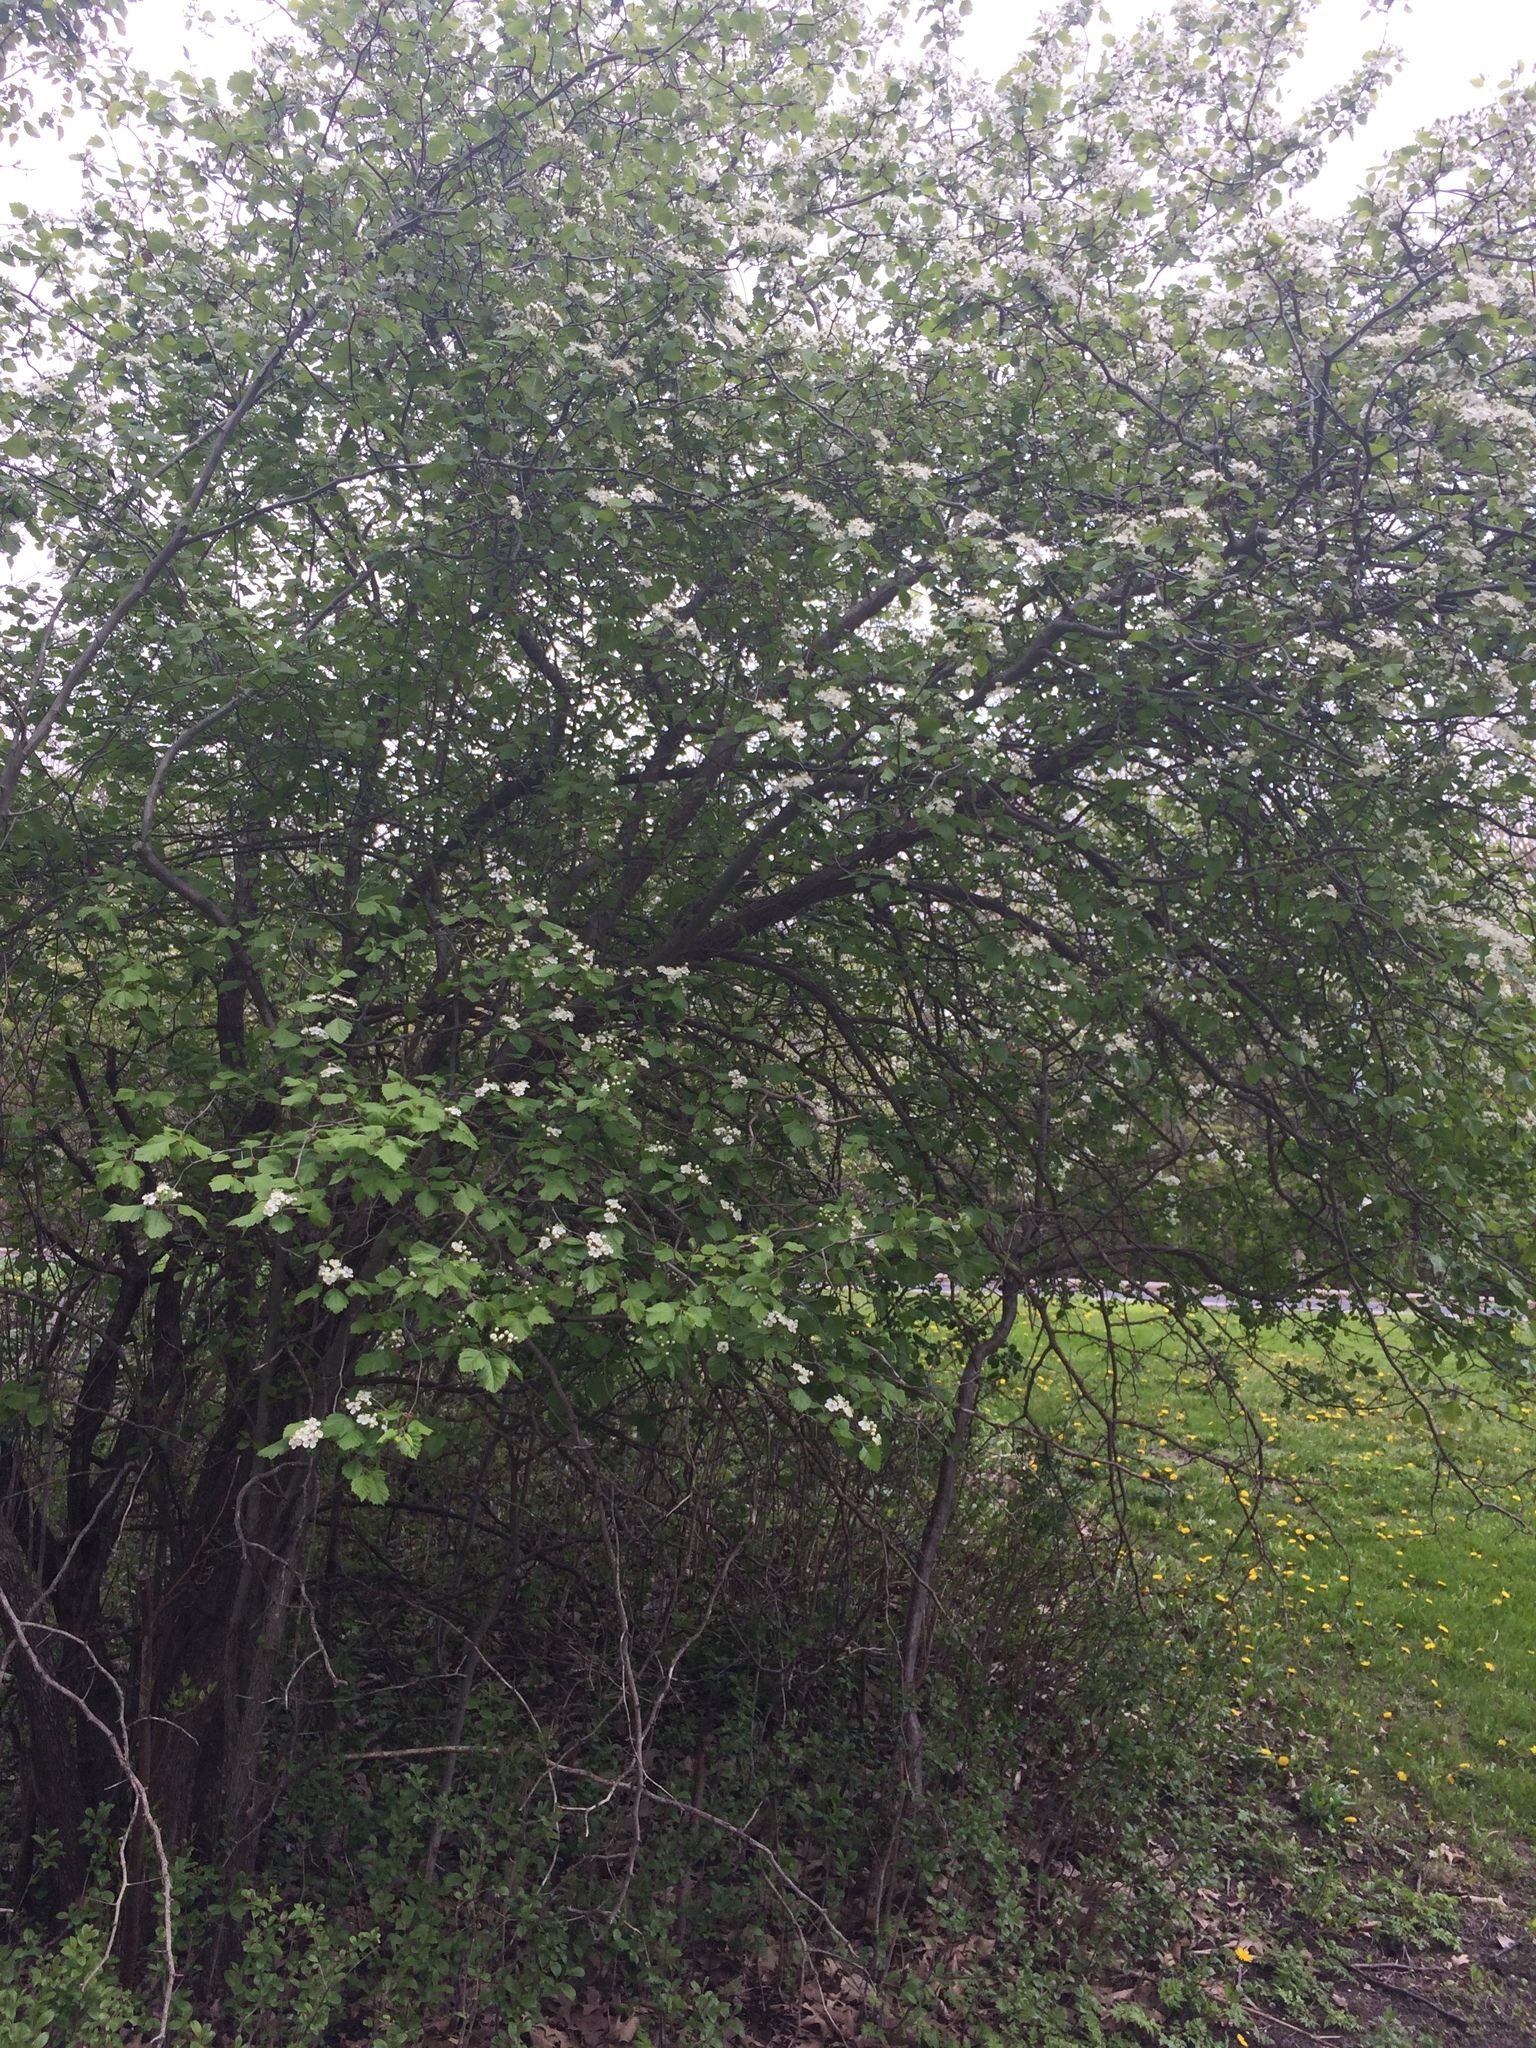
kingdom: Plantae
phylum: Tracheophyta
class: Magnoliopsida
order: Rosales
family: Rosaceae
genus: Crataegus
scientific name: Crataegus submollis
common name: Hairy cockspurthorn
